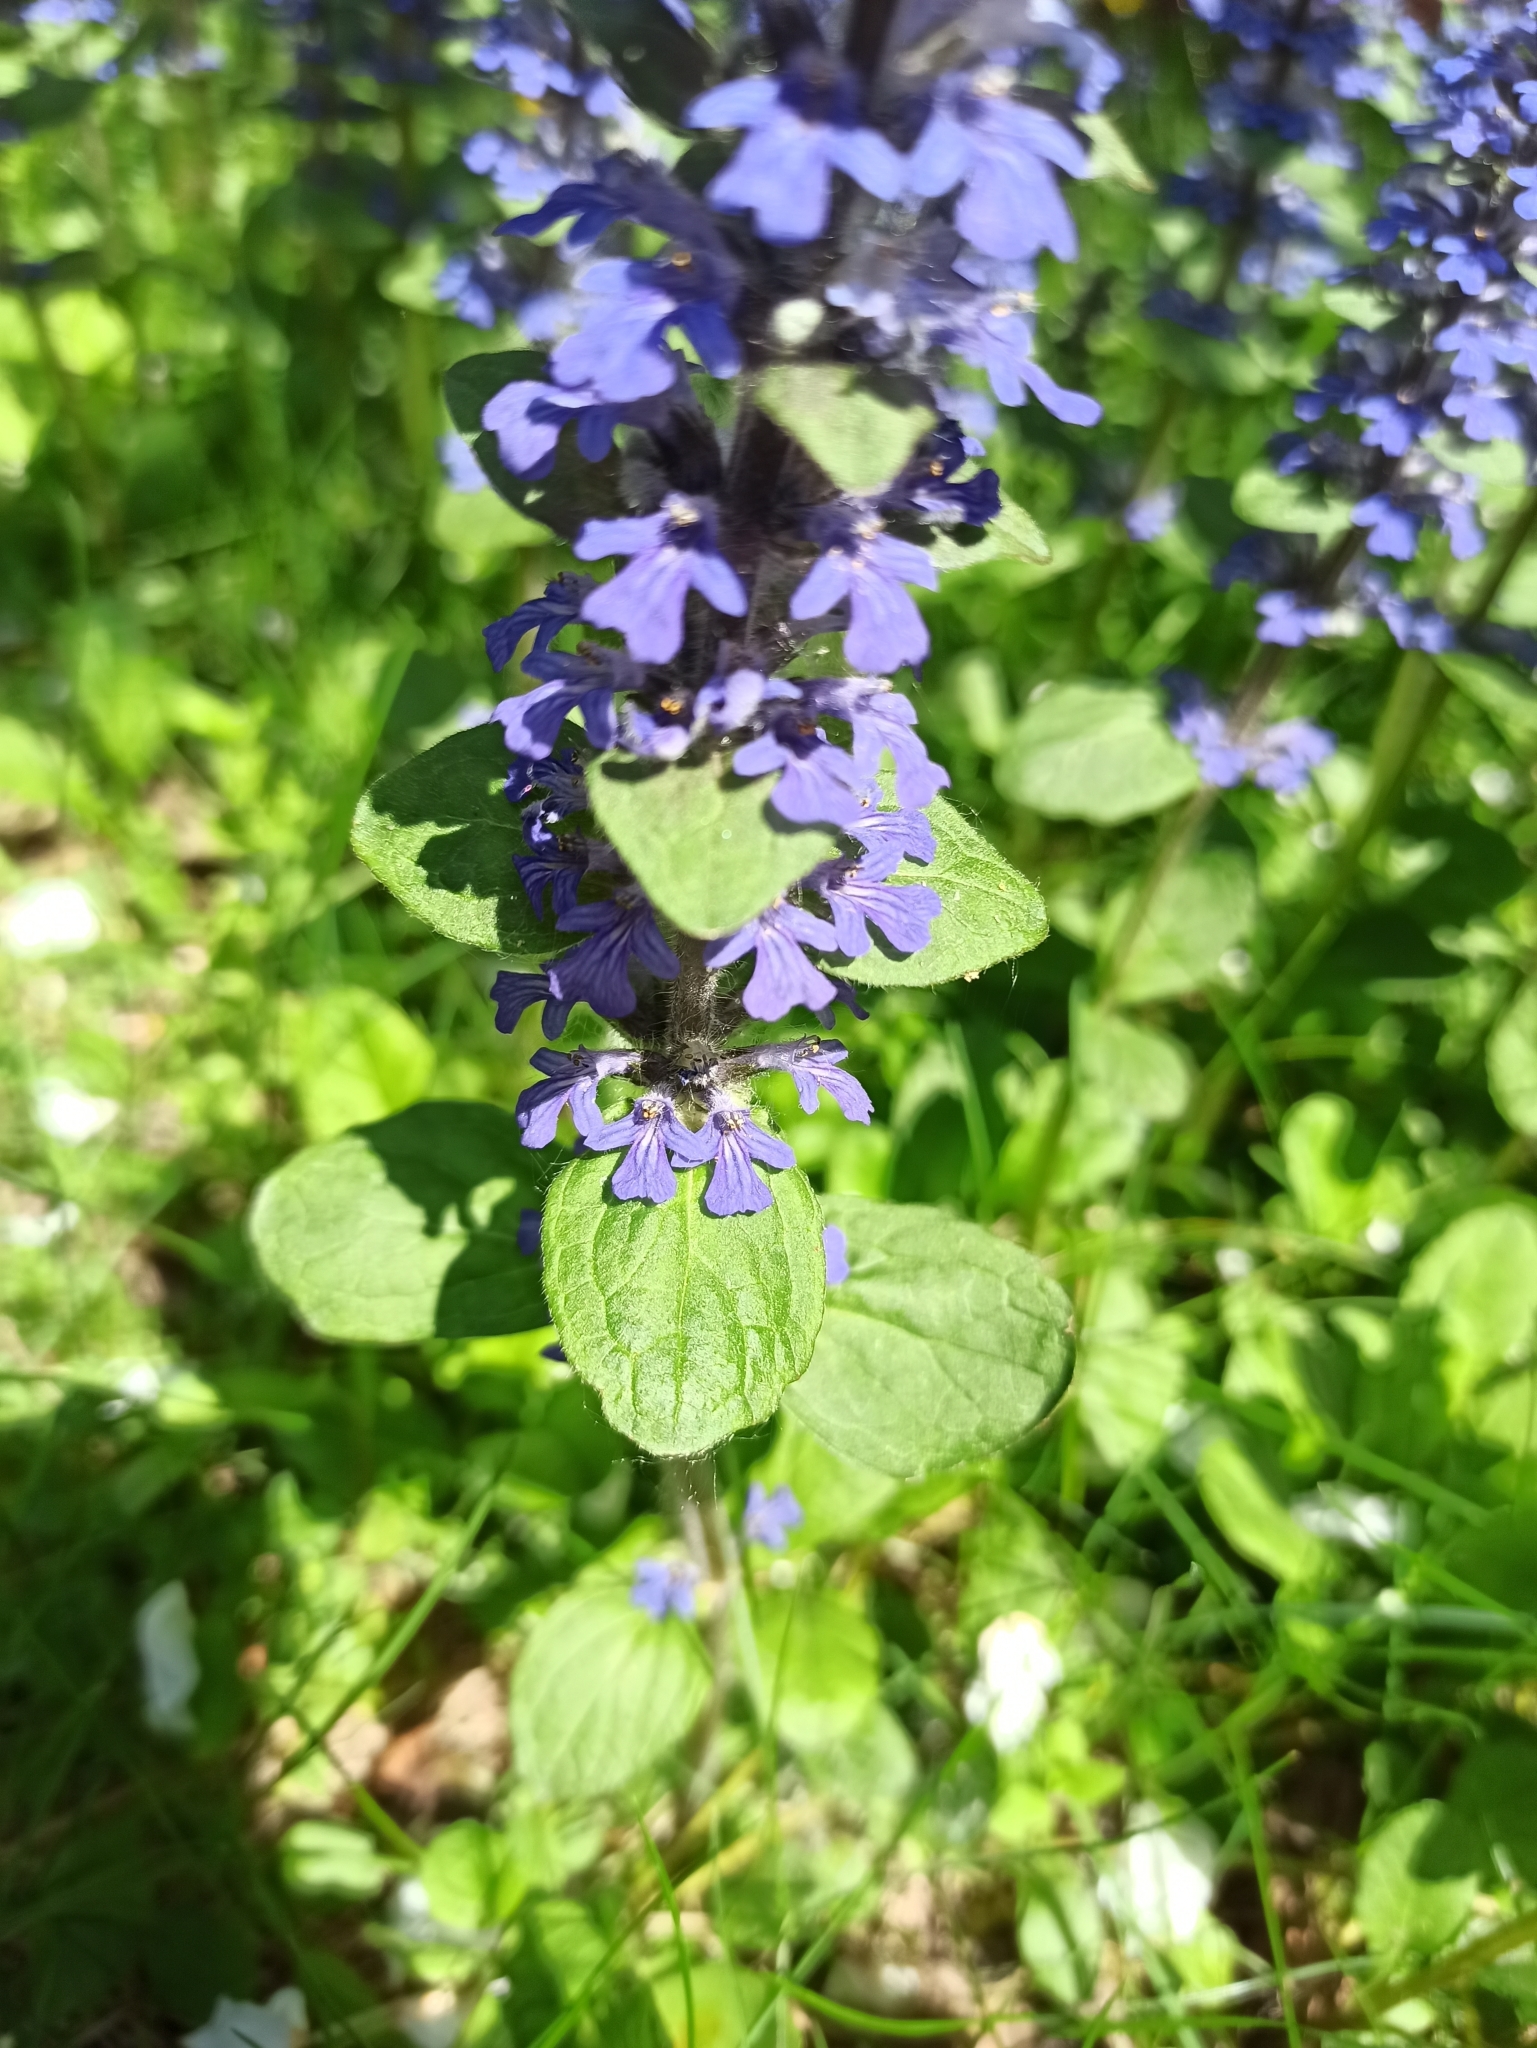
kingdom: Plantae
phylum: Tracheophyta
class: Magnoliopsida
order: Lamiales
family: Lamiaceae
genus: Ajuga
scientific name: Ajuga reptans
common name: Bugle
